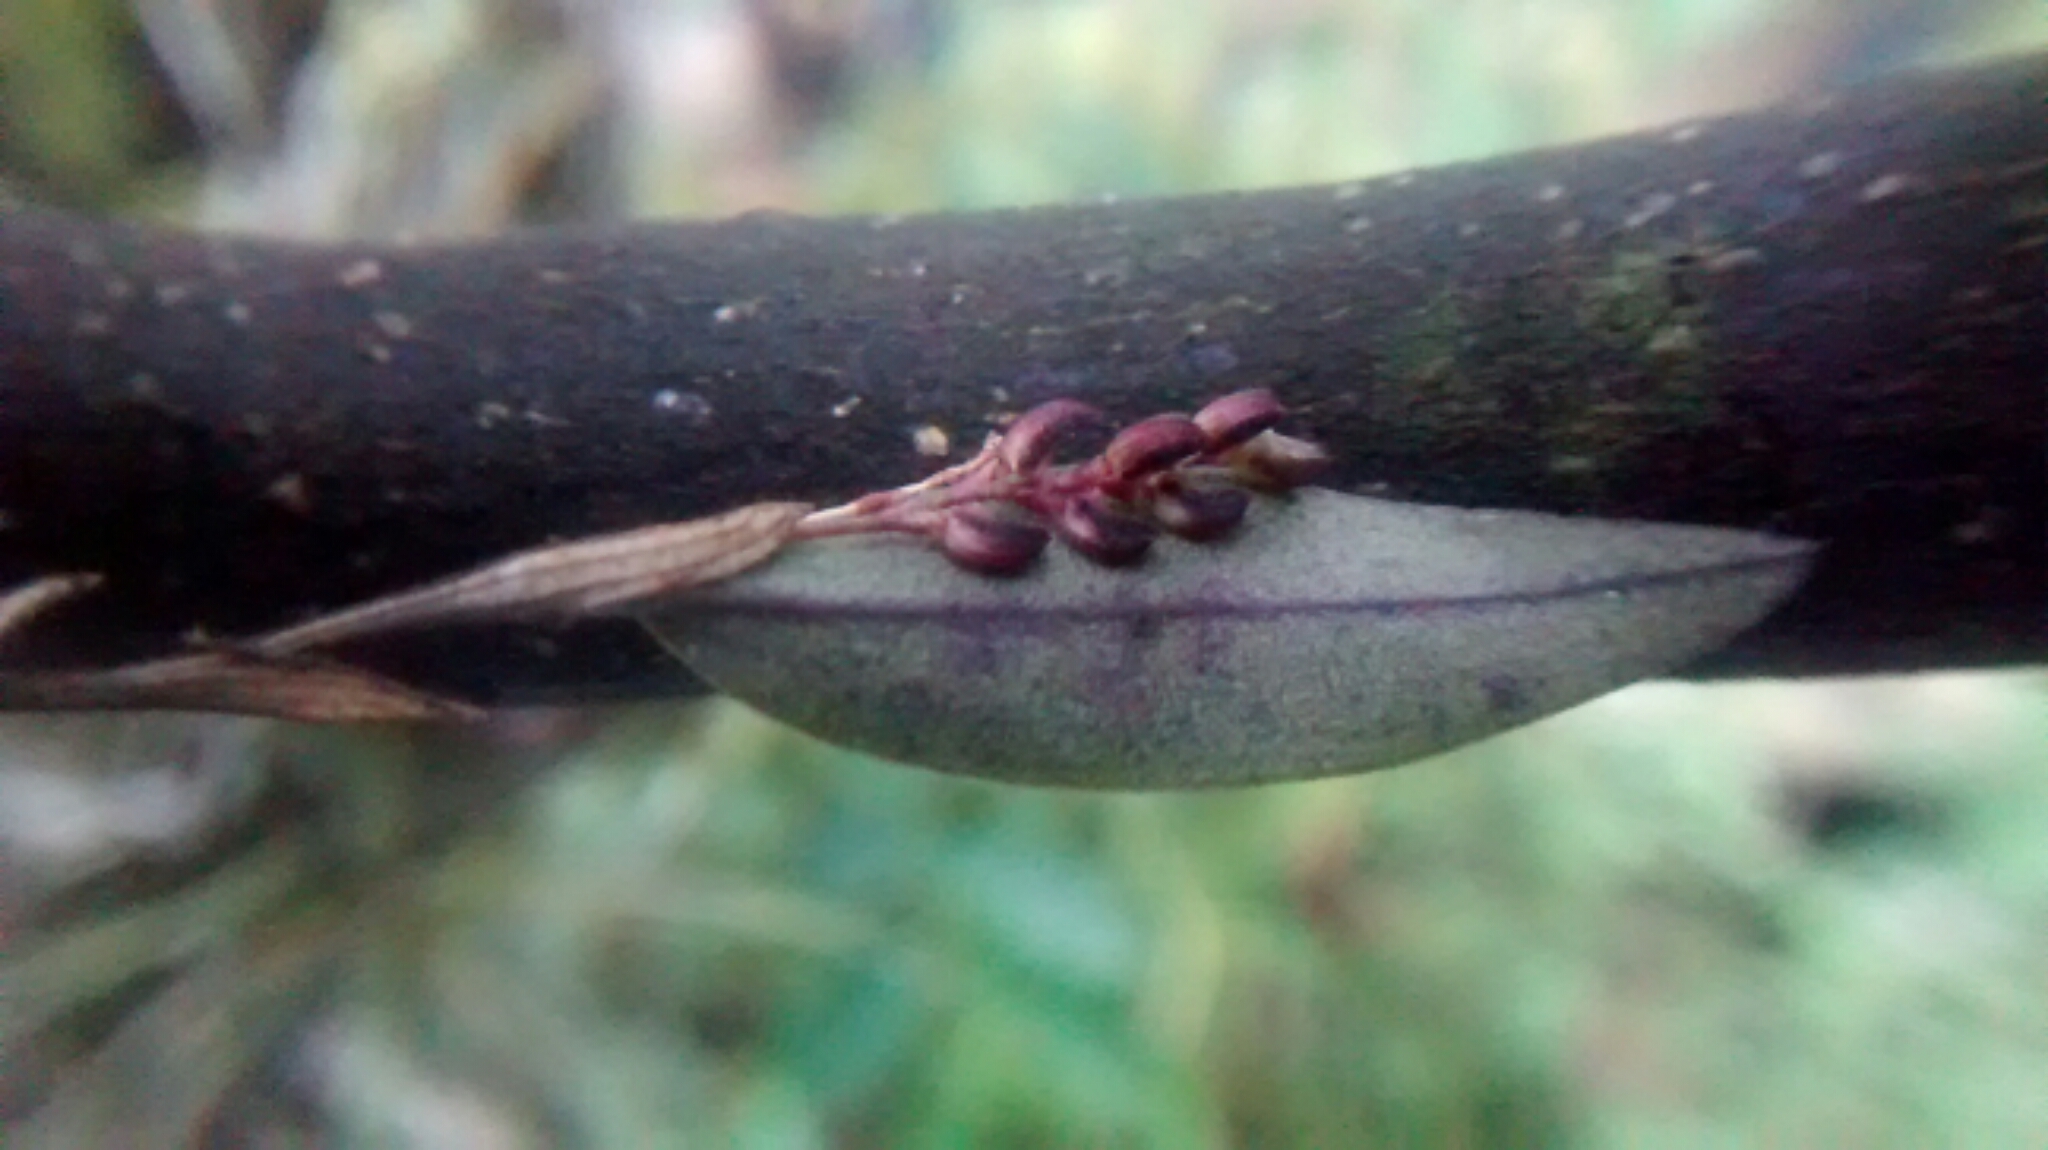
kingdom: Plantae
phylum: Tracheophyta
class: Liliopsida
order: Asparagales
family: Orchidaceae
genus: Trichosalpinx
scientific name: Trichosalpinx ciliaris
